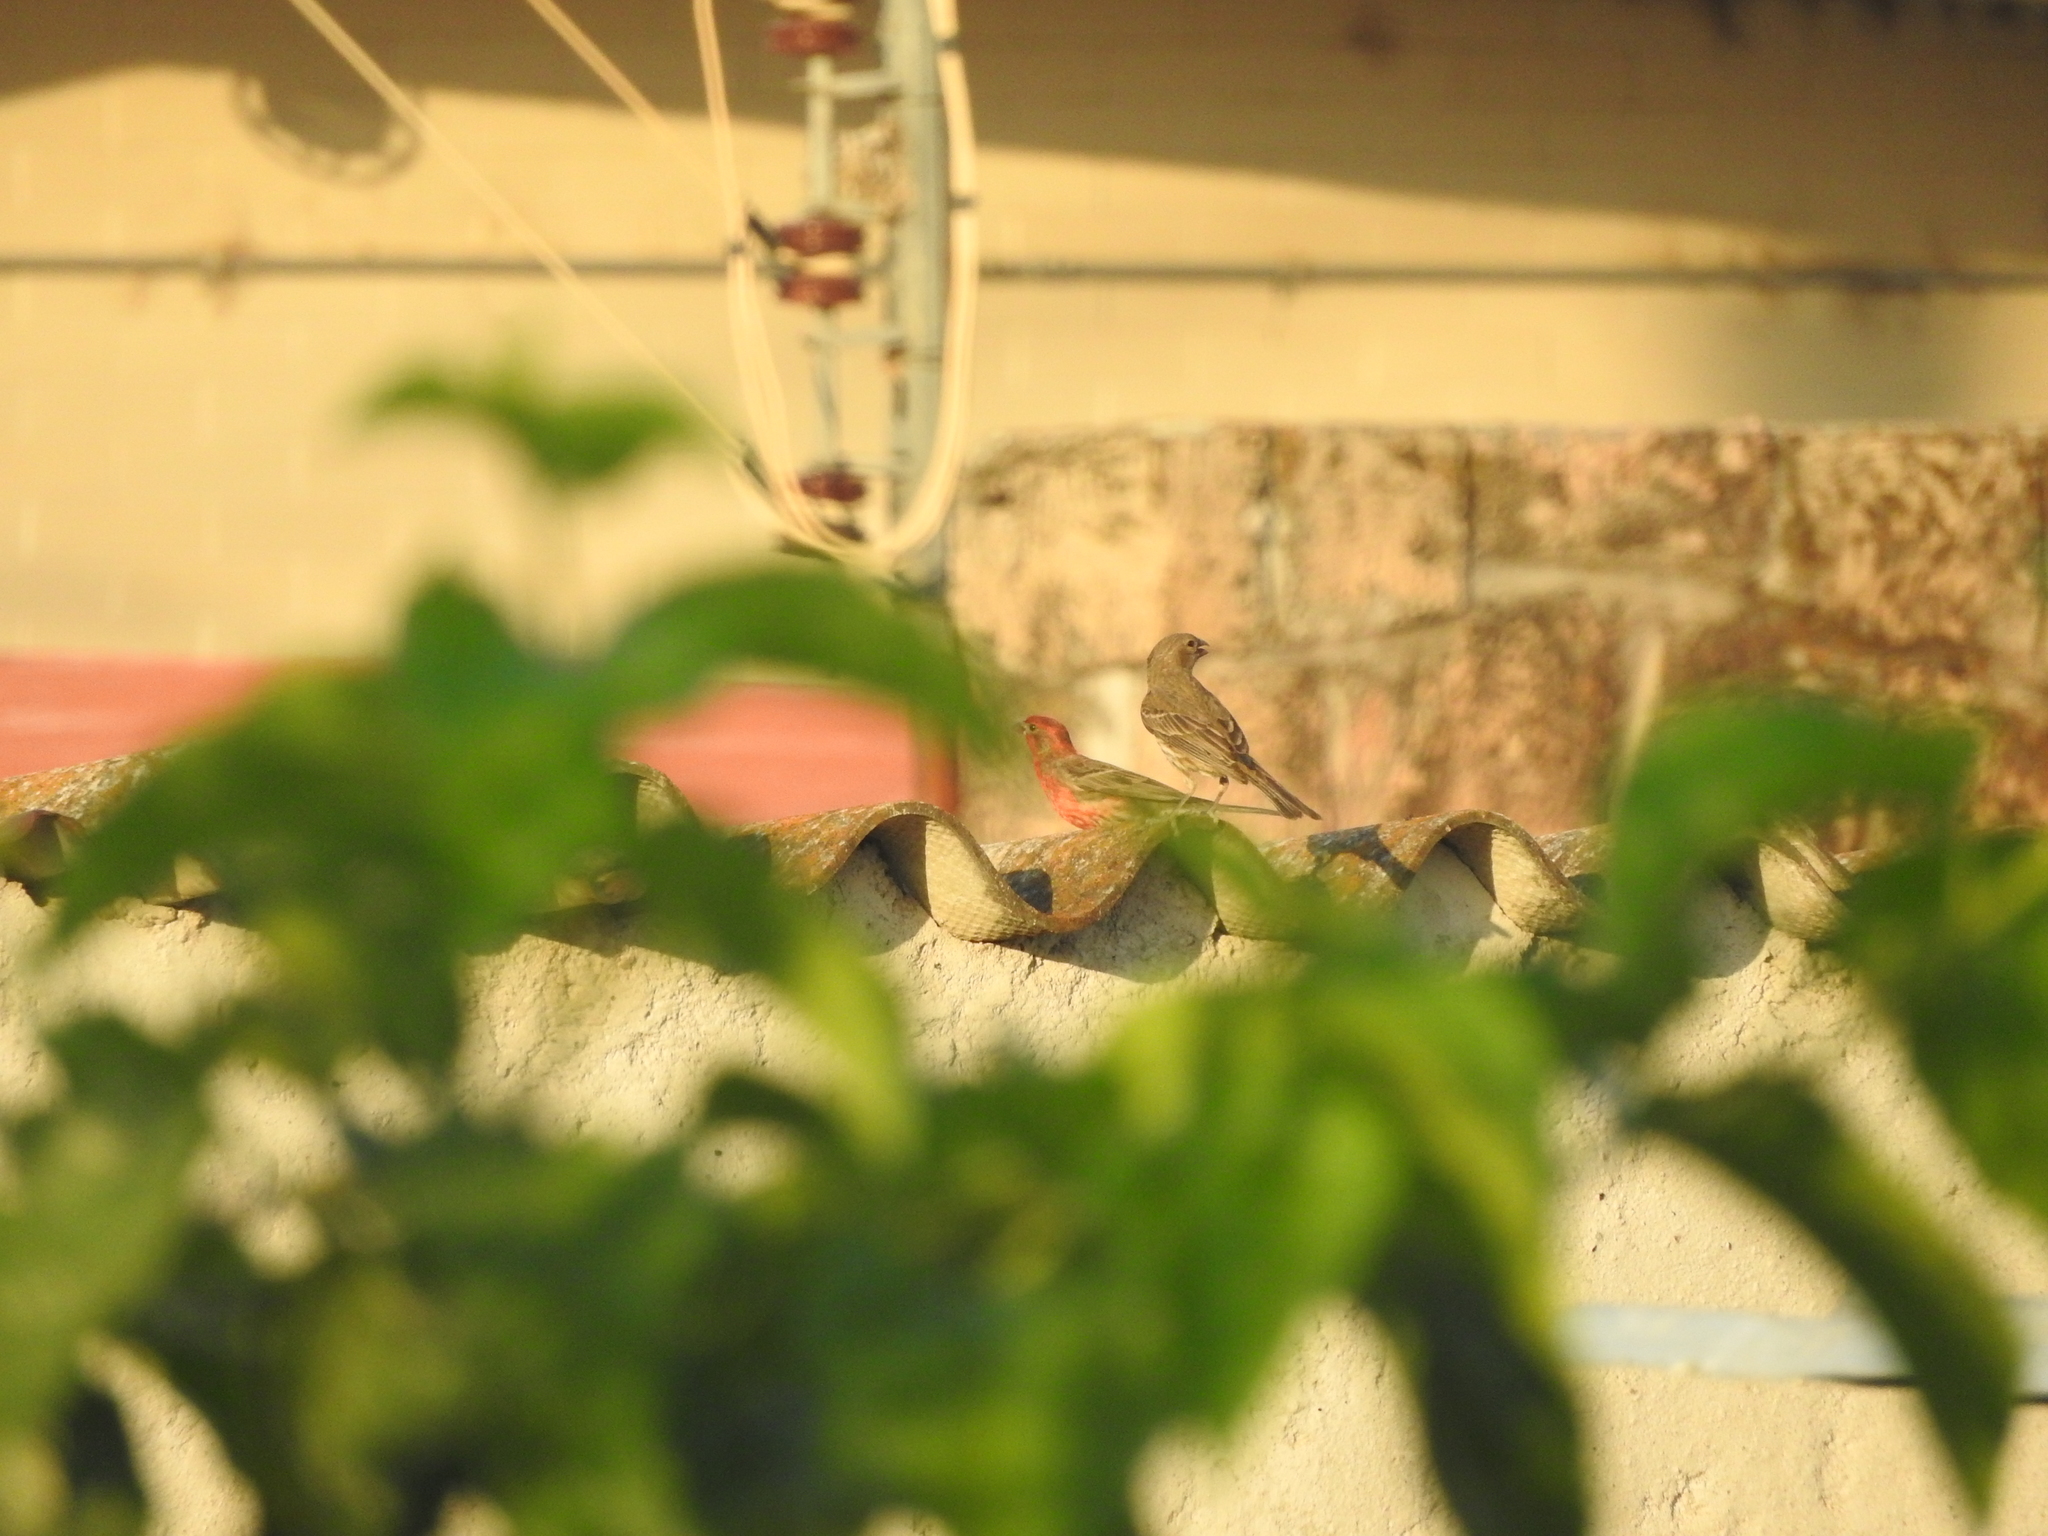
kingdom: Animalia
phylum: Chordata
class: Aves
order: Passeriformes
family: Fringillidae
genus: Haemorhous
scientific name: Haemorhous mexicanus
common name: House finch
